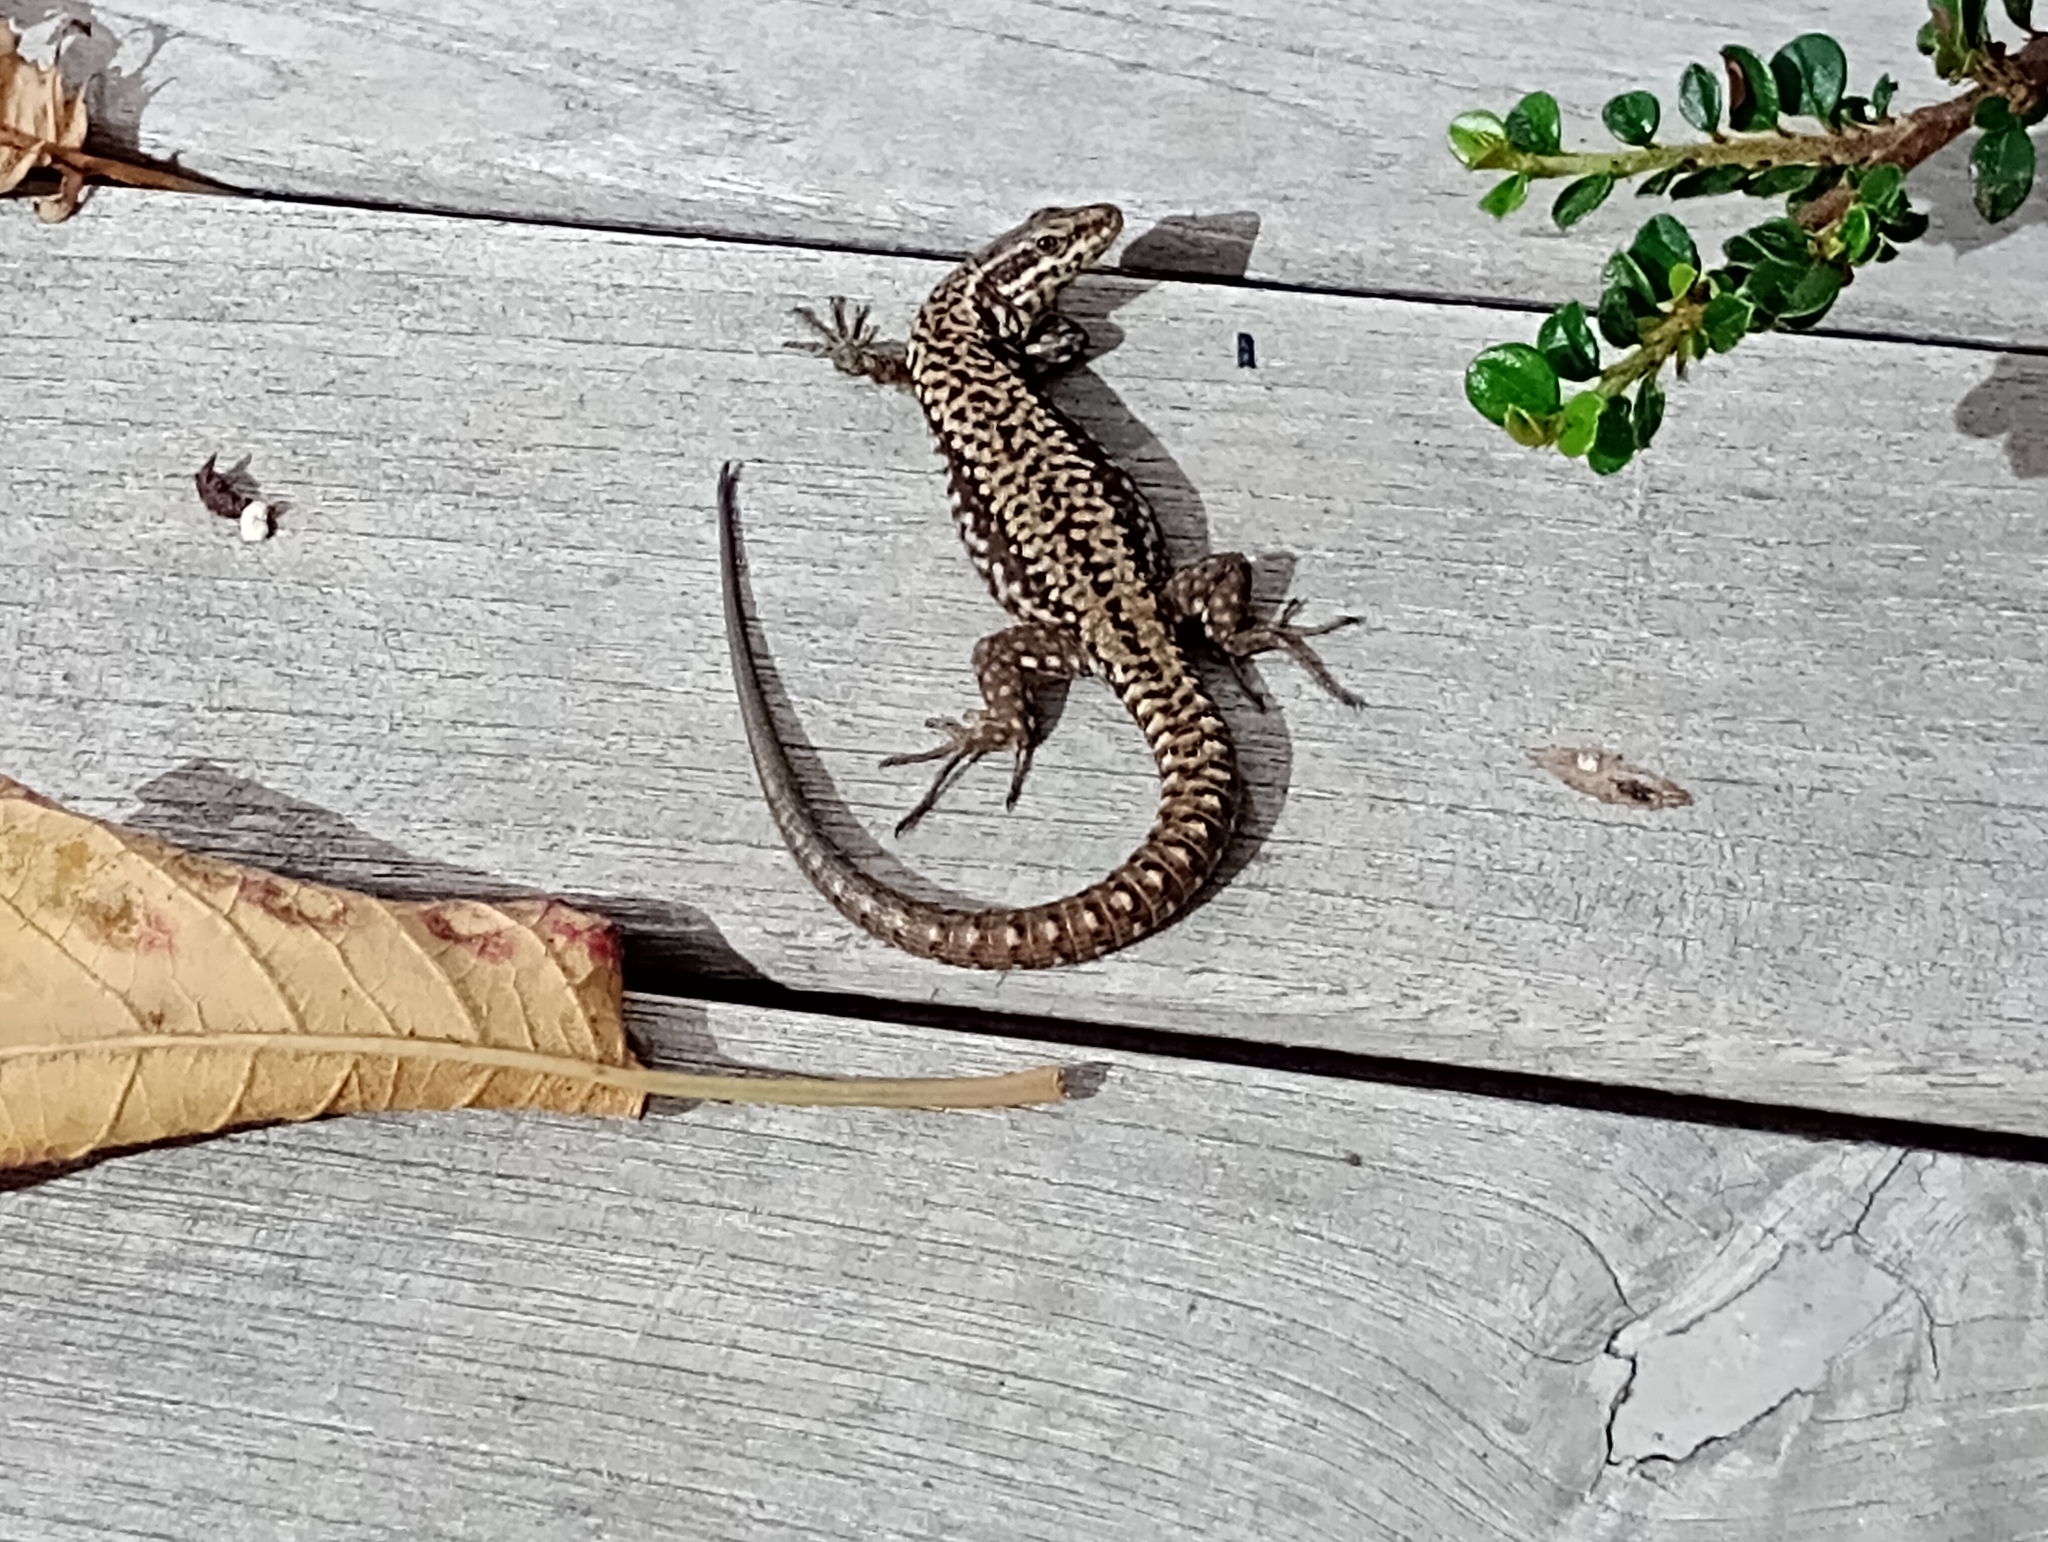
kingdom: Animalia
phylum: Chordata
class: Squamata
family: Lacertidae
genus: Podarcis
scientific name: Podarcis muralis
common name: Common wall lizard
